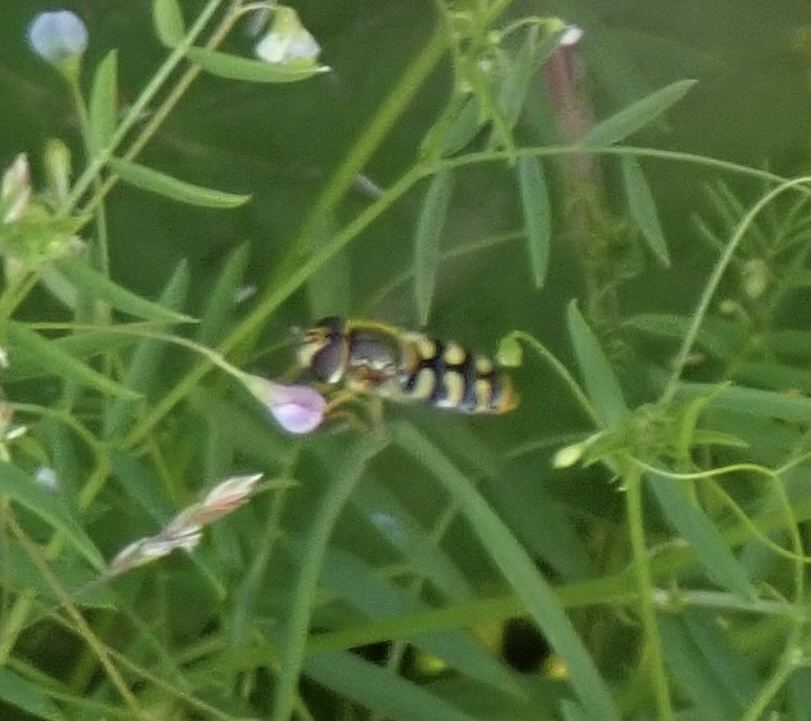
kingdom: Animalia
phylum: Arthropoda
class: Insecta
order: Diptera
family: Syrphidae
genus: Eupeodes
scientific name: Eupeodes
